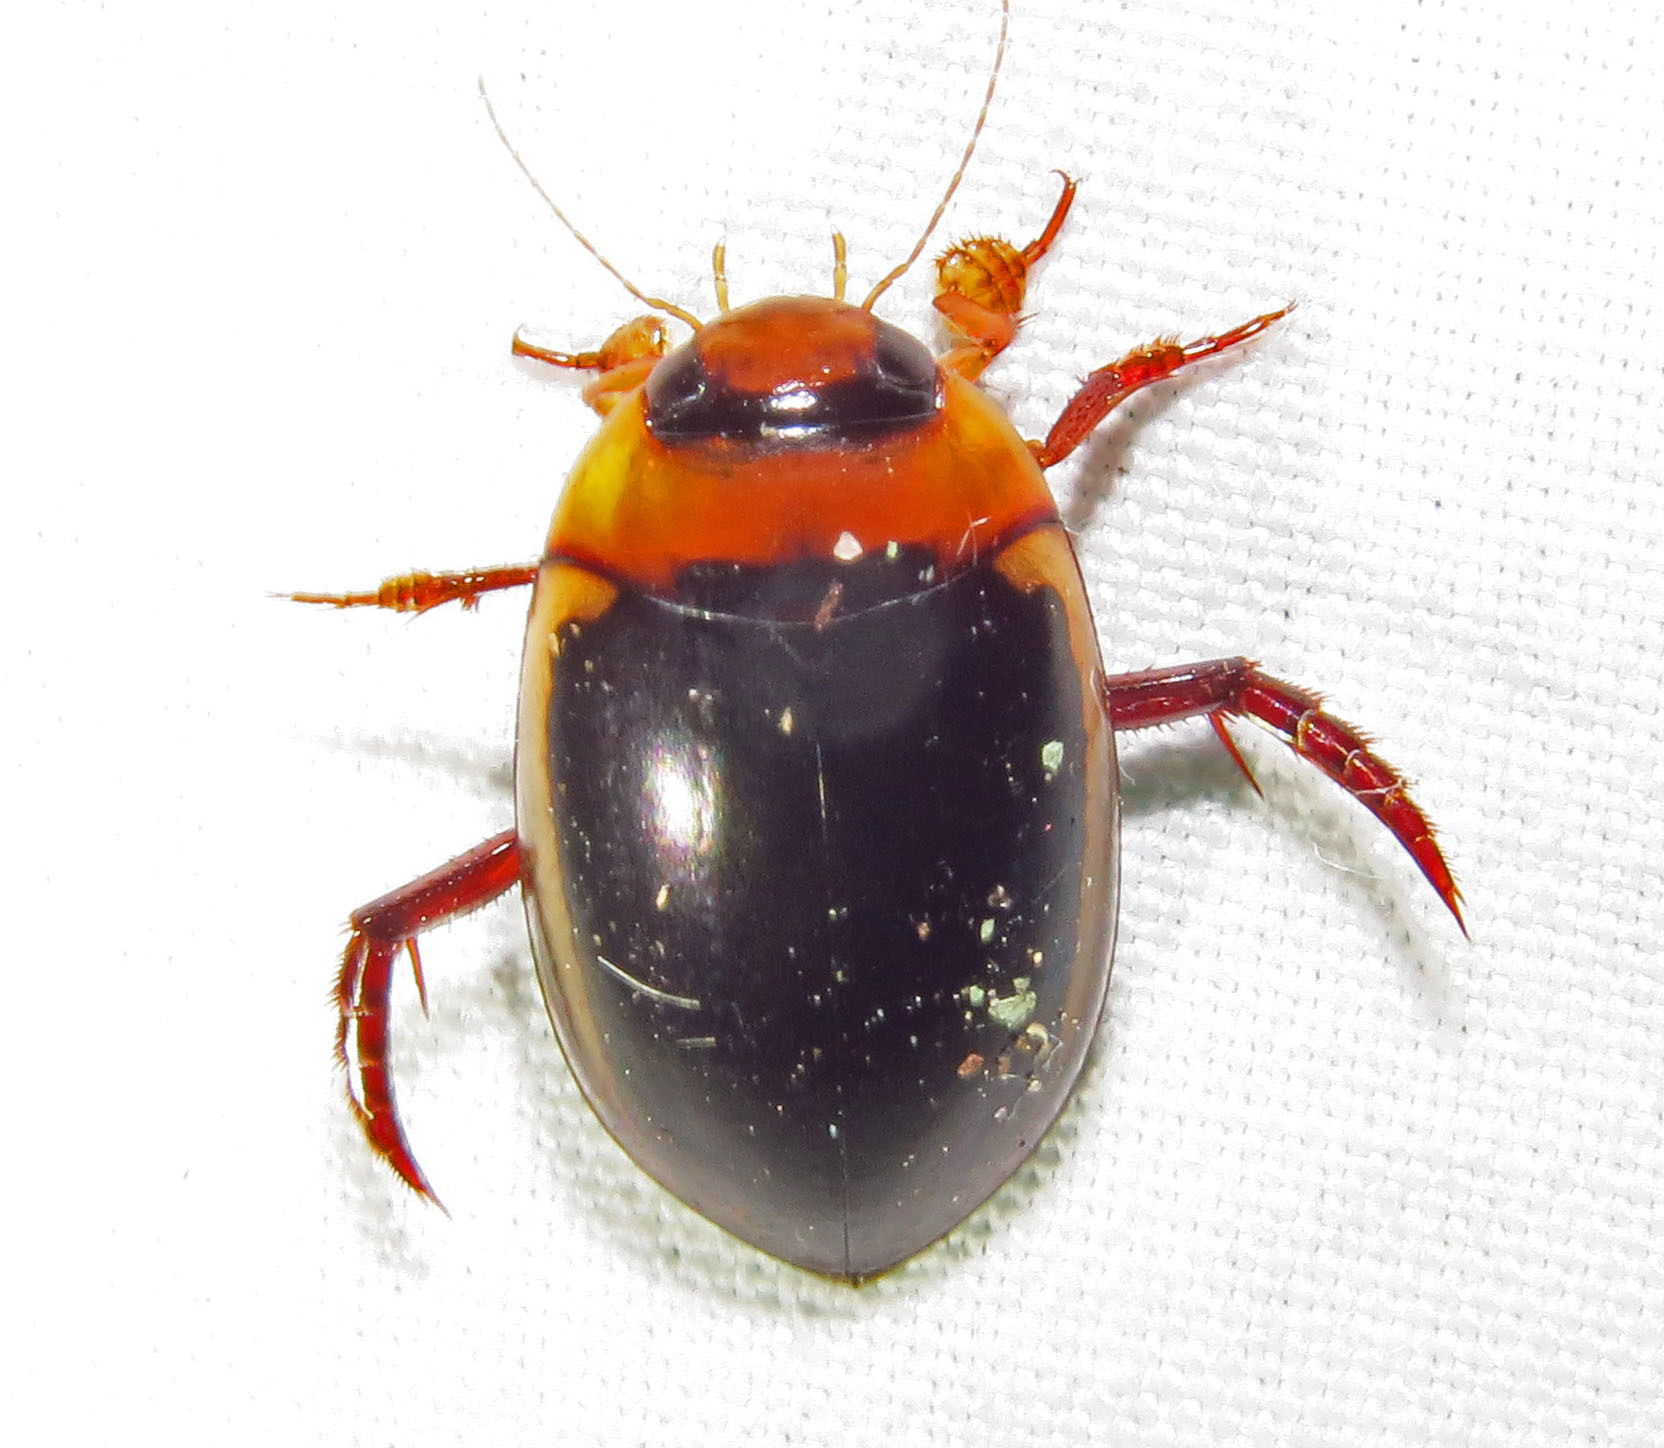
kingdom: Animalia
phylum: Arthropoda
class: Insecta
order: Coleoptera
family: Dytiscidae
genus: Hydaticus
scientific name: Hydaticus bimarginatus
